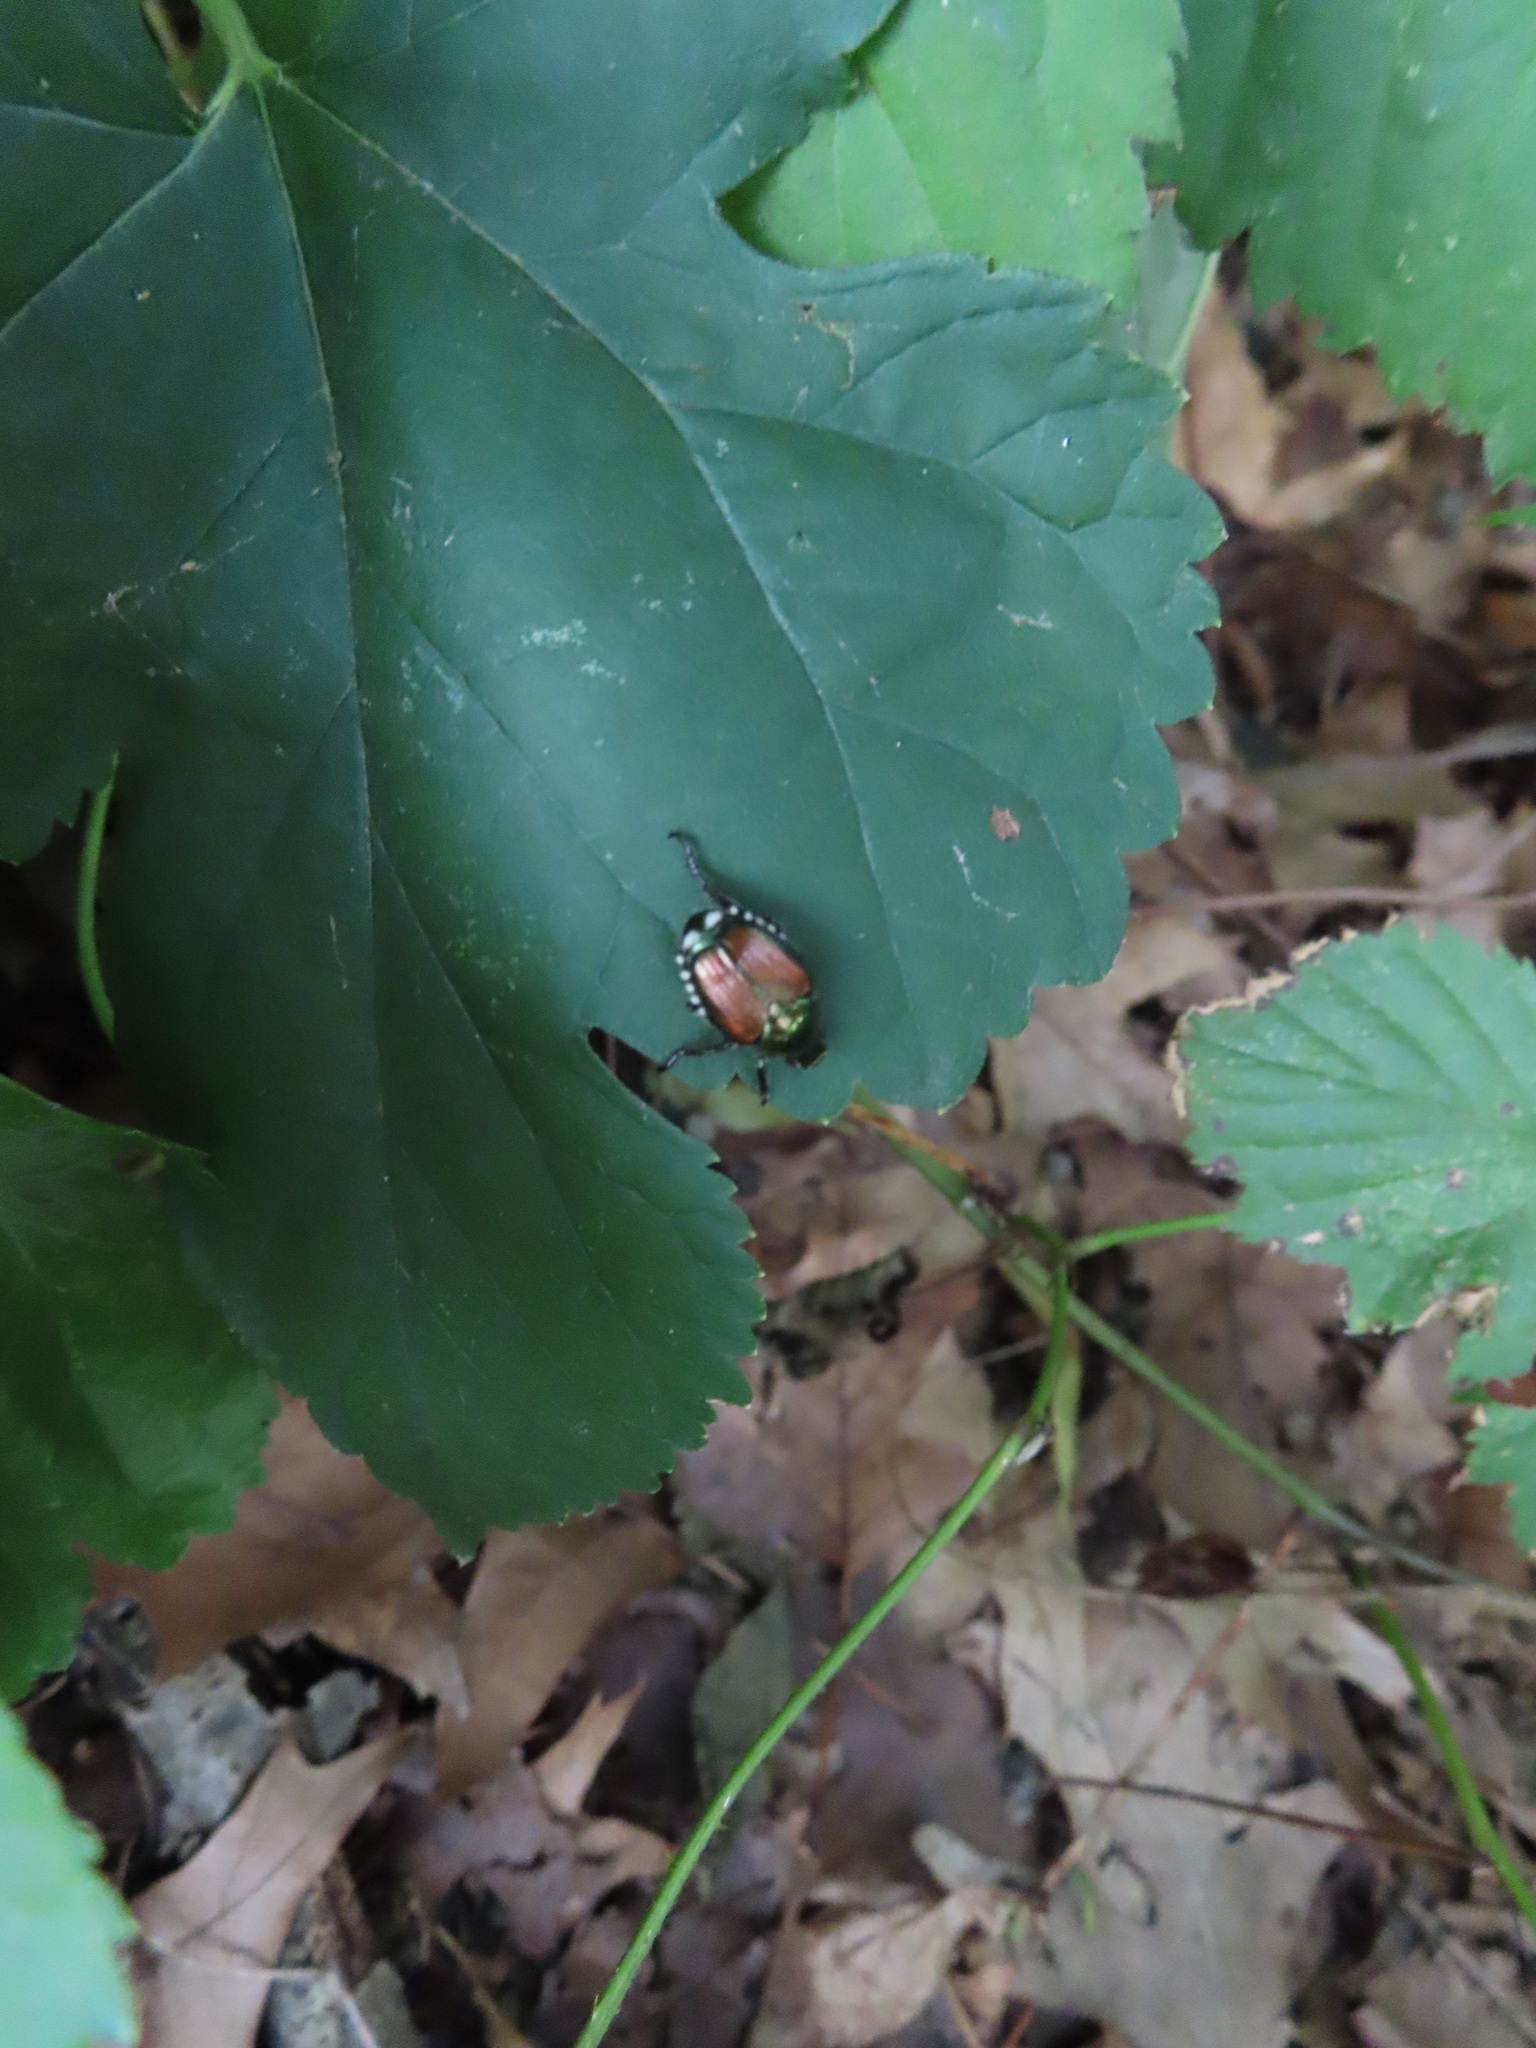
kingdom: Animalia
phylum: Arthropoda
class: Insecta
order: Coleoptera
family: Scarabaeidae
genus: Popillia
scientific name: Popillia japonica
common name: Japanese beetle
